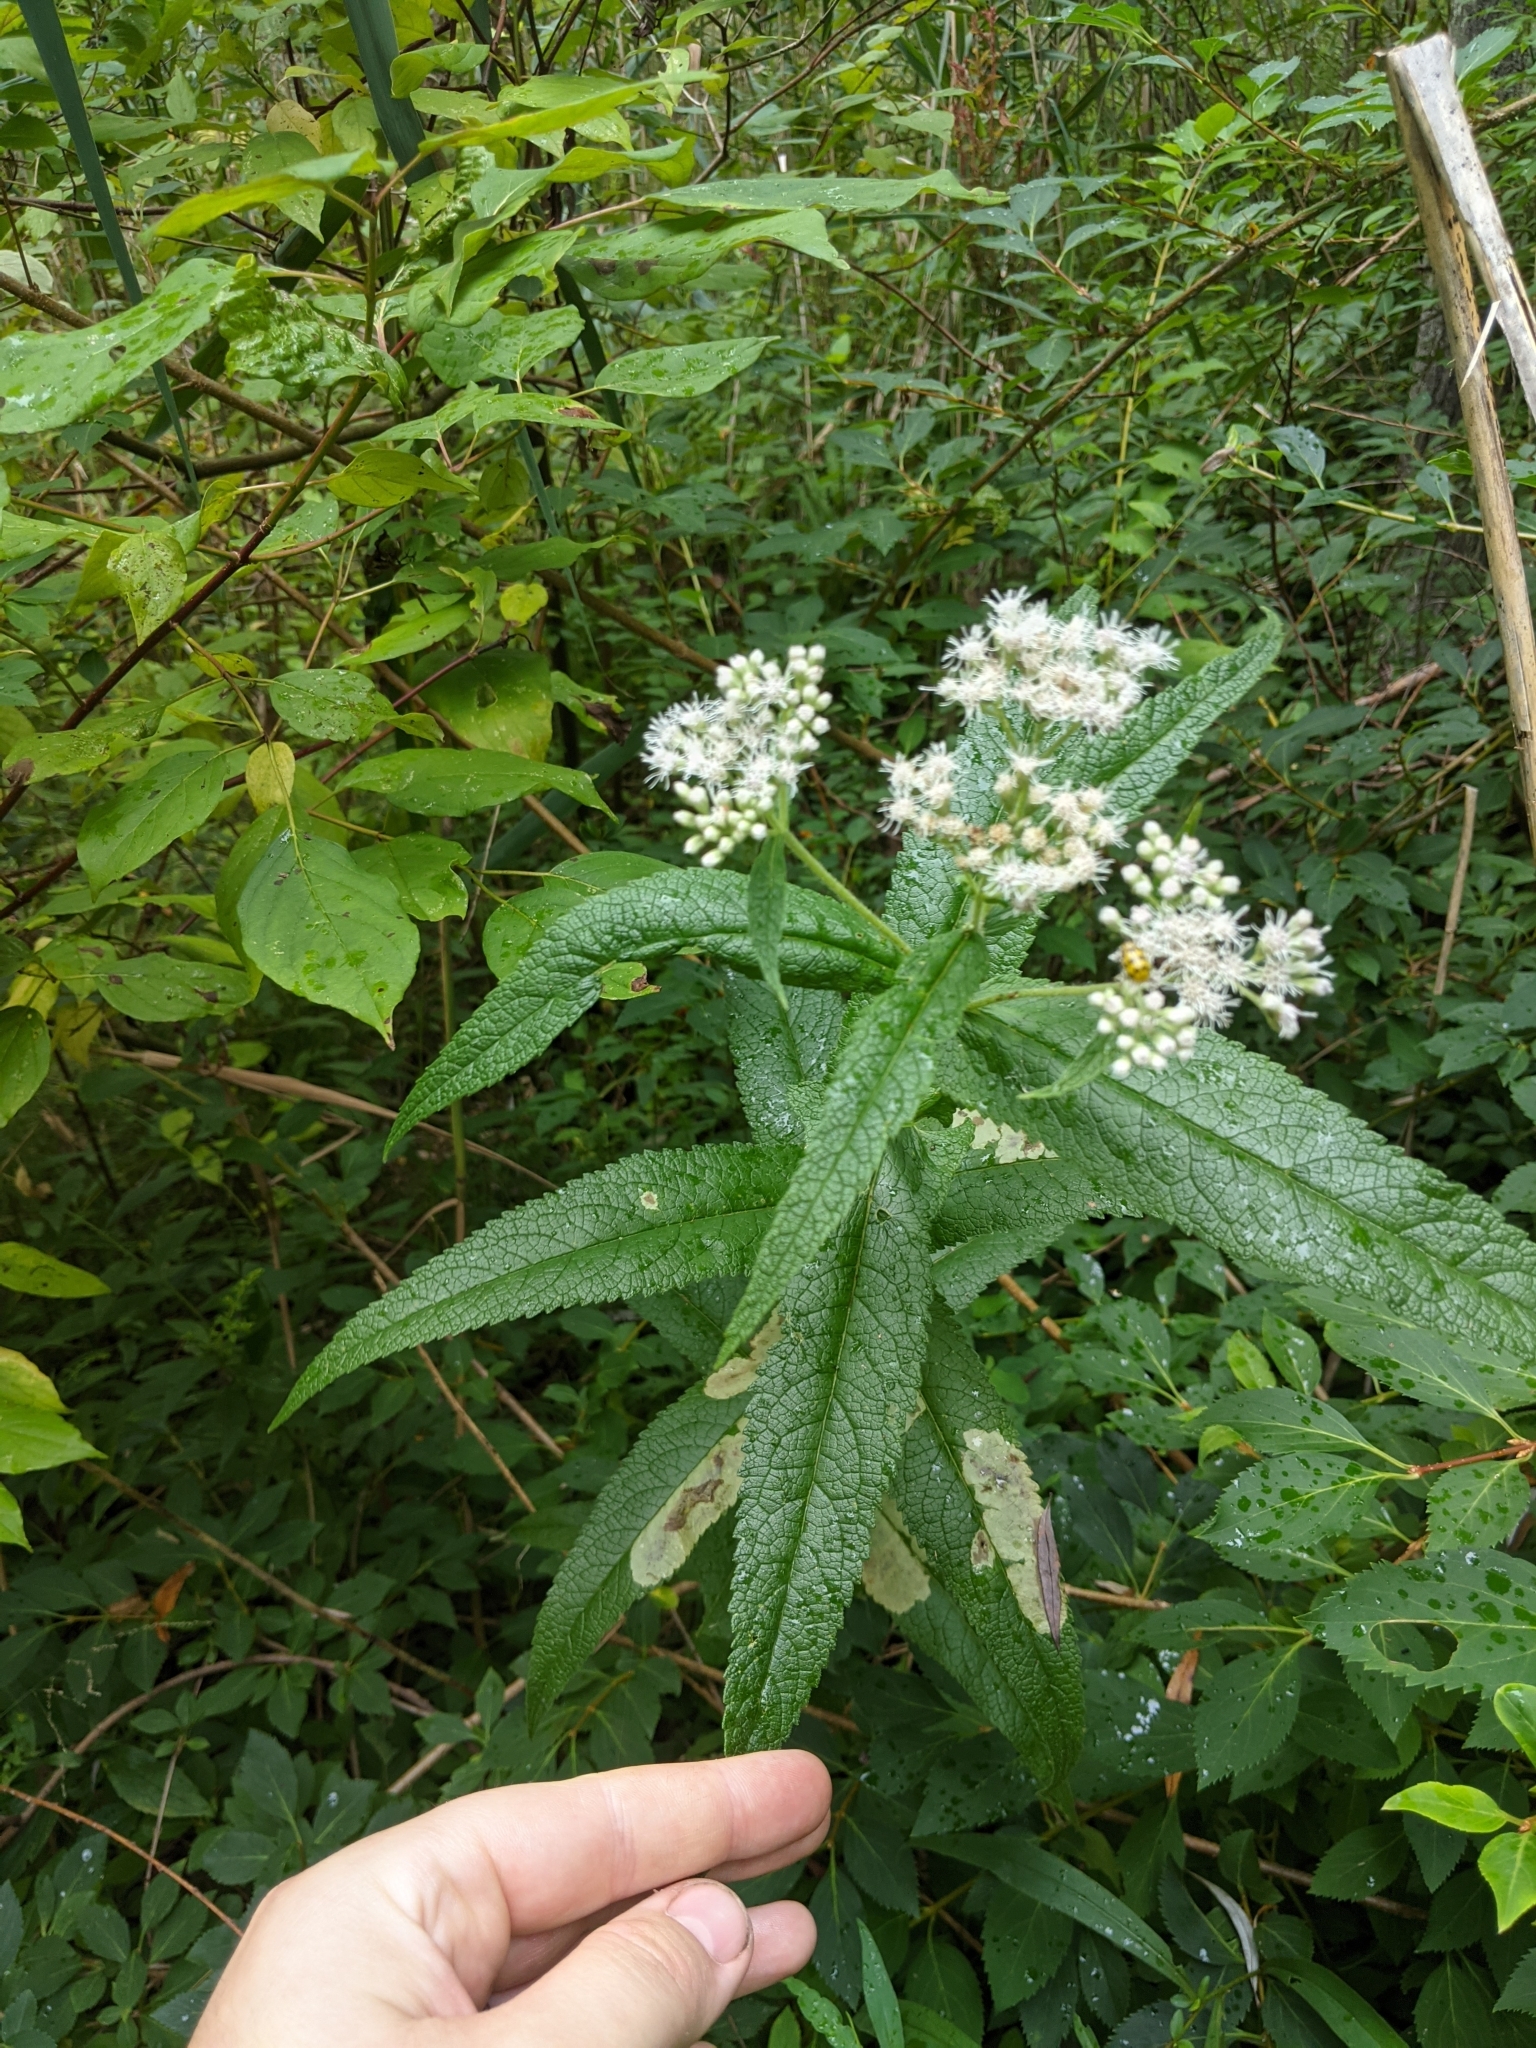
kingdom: Plantae
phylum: Tracheophyta
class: Magnoliopsida
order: Asterales
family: Asteraceae
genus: Eupatorium
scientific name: Eupatorium perfoliatum
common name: Boneset
